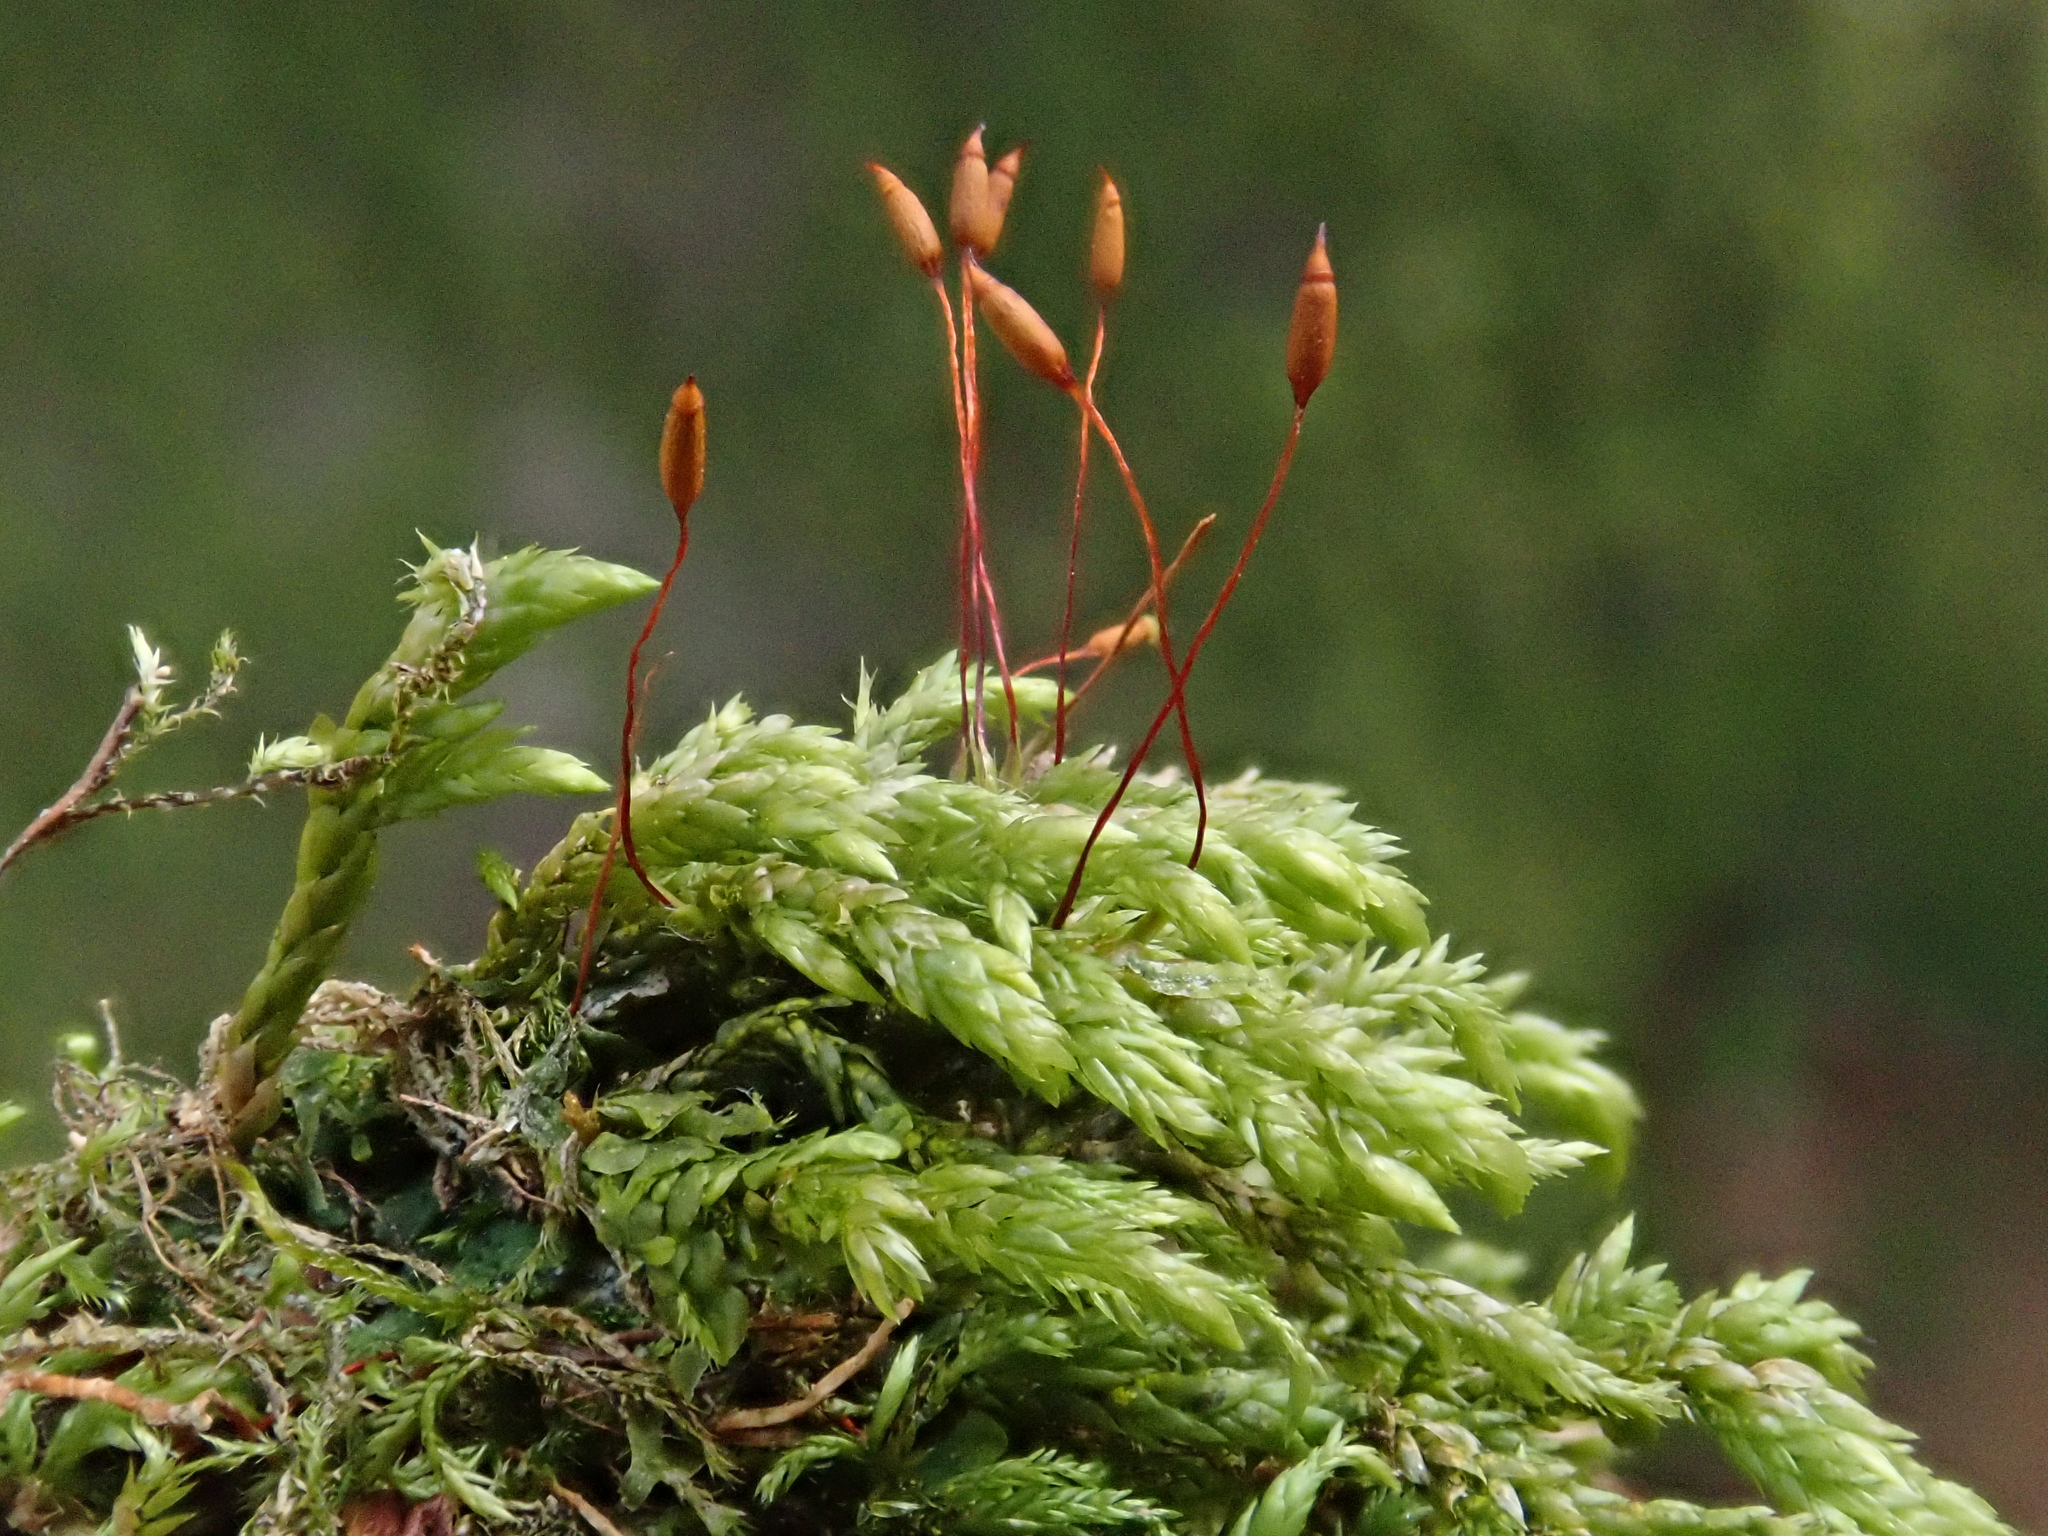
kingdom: Plantae
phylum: Bryophyta
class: Bryopsida
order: Hypnales
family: Lembophyllaceae
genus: Isothecium
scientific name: Isothecium alopecuroides
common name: Larger mouse-tail moss
